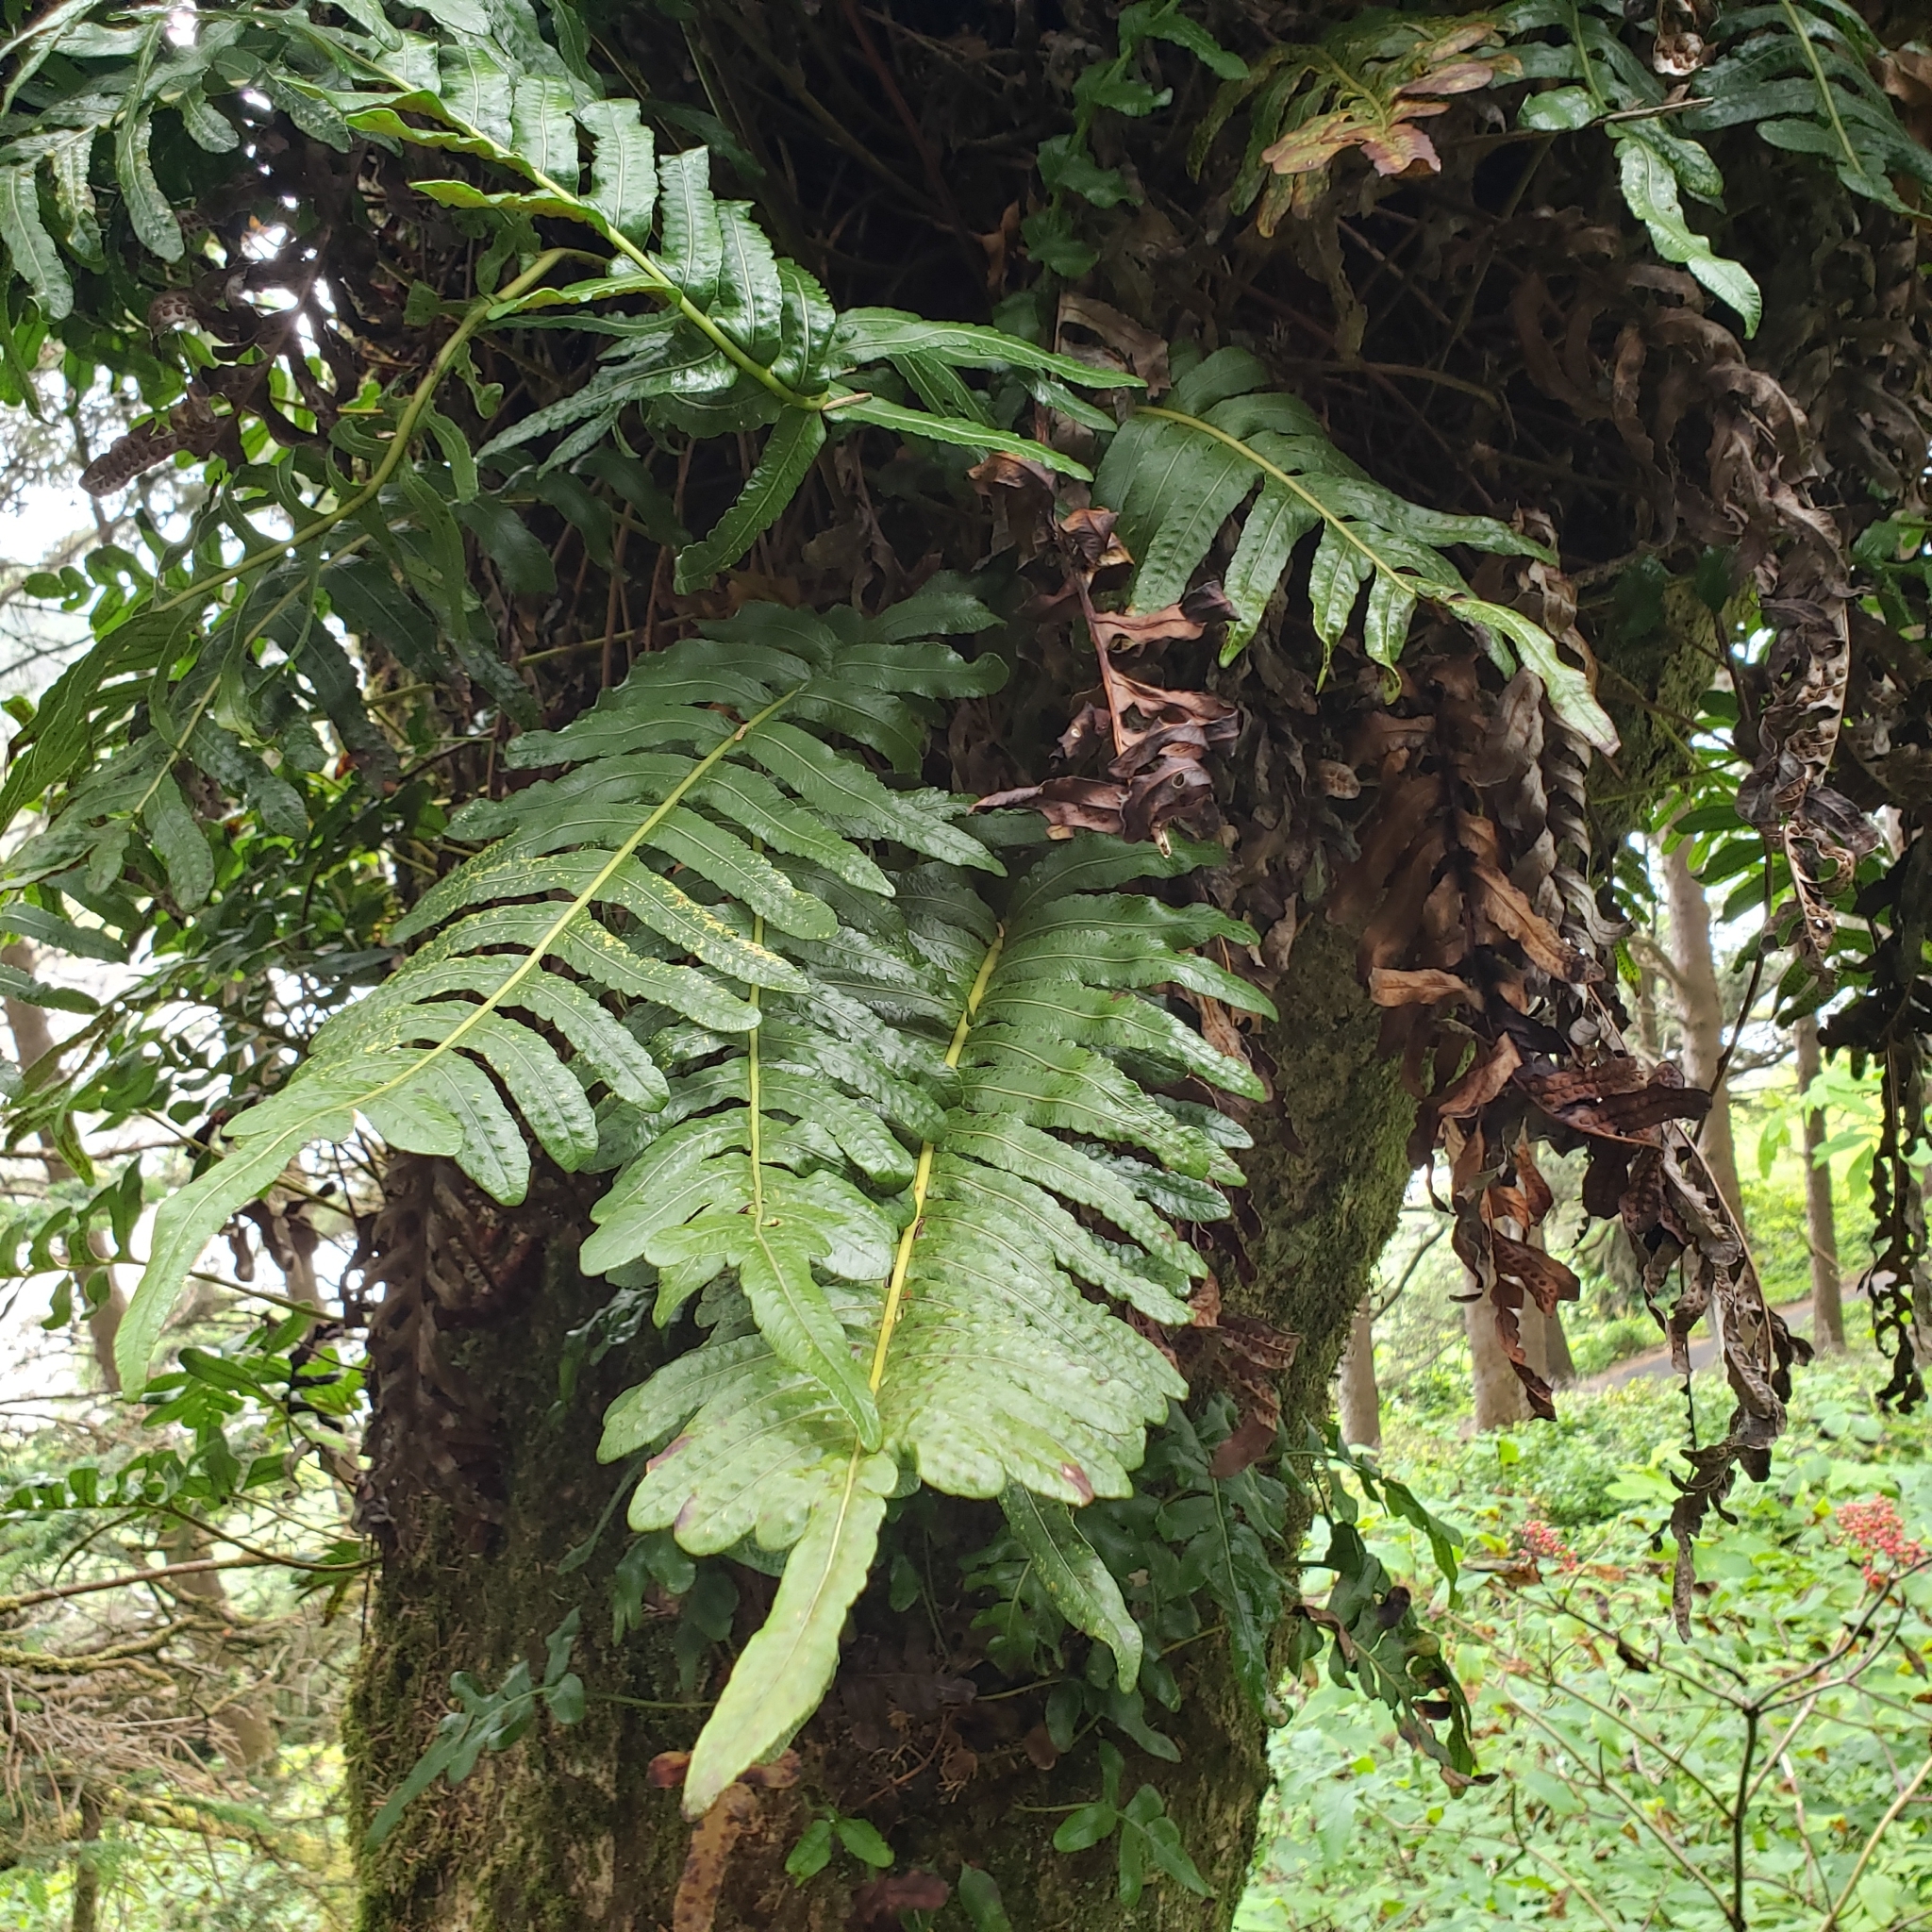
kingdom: Plantae
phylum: Tracheophyta
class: Polypodiopsida
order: Polypodiales
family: Polypodiaceae
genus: Polypodium
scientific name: Polypodium scouleri
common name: Scouler's polypody
